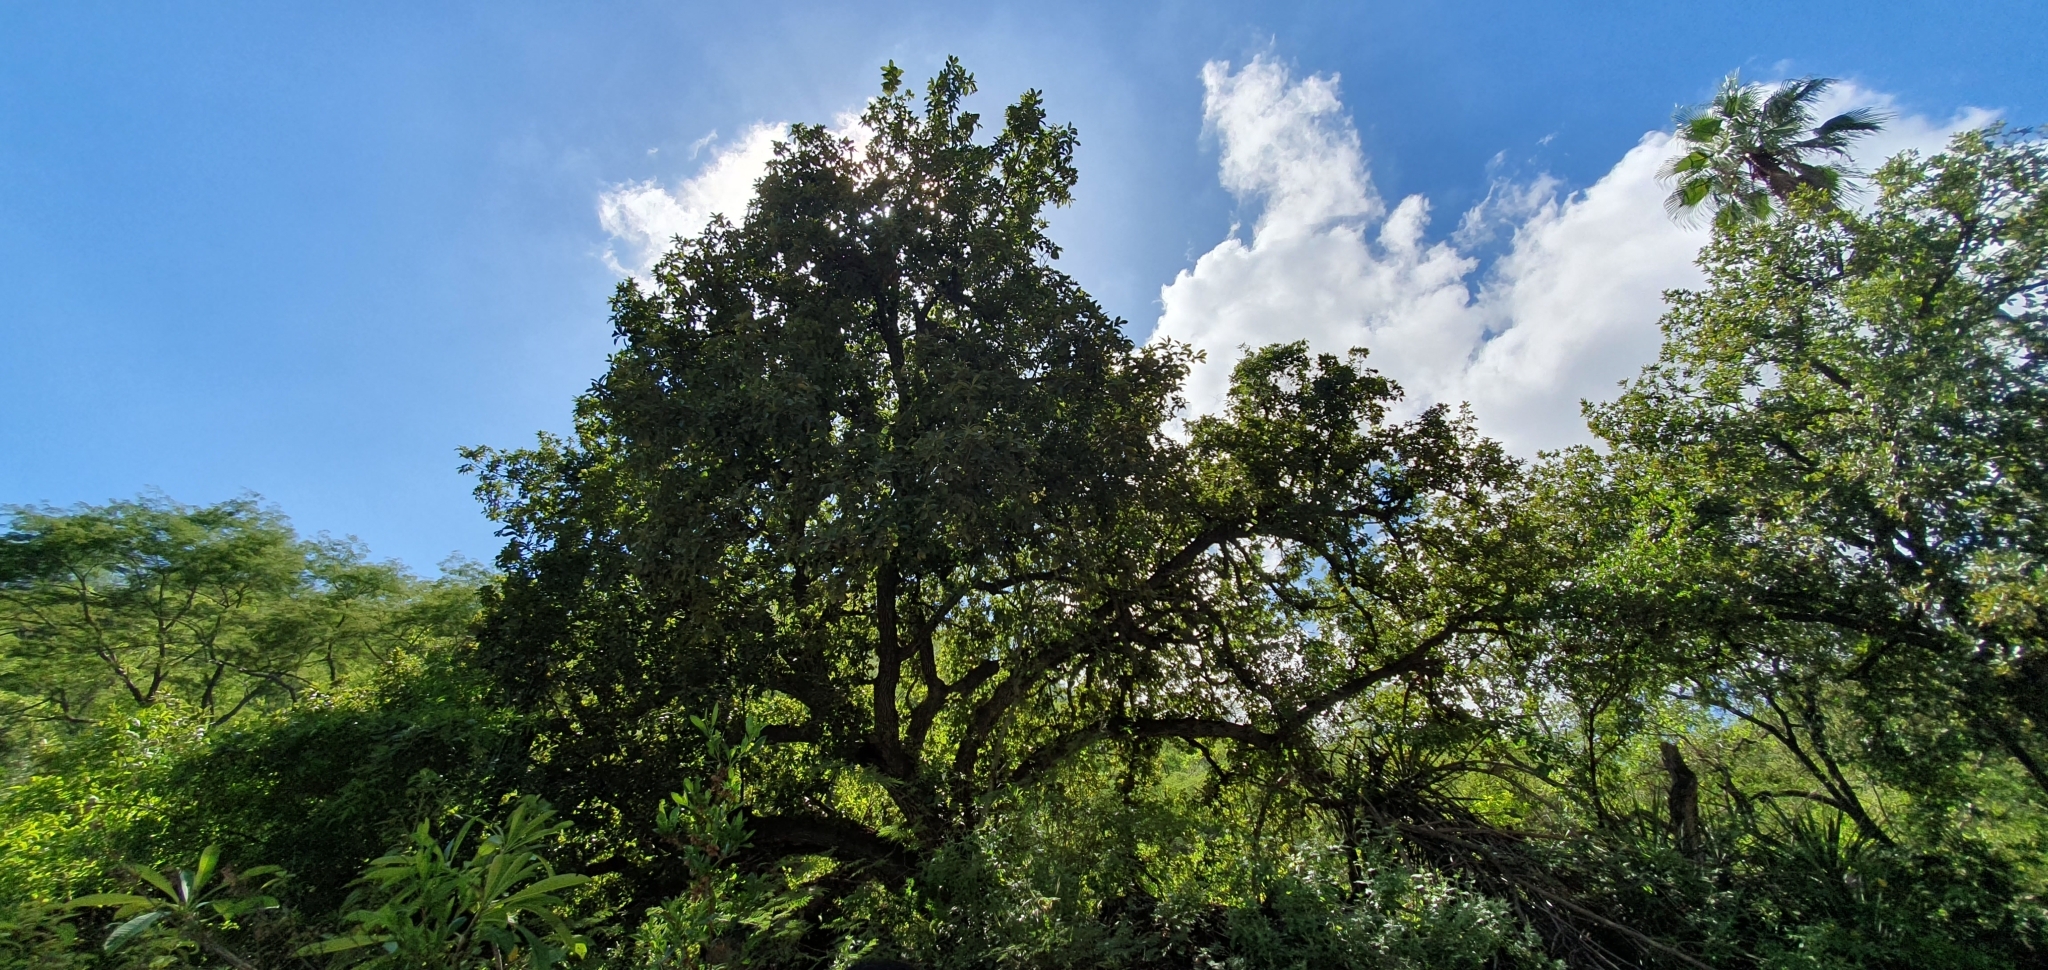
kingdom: Plantae
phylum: Tracheophyta
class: Magnoliopsida
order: Fagales
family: Fagaceae
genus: Quercus
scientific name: Quercus tuberculata
